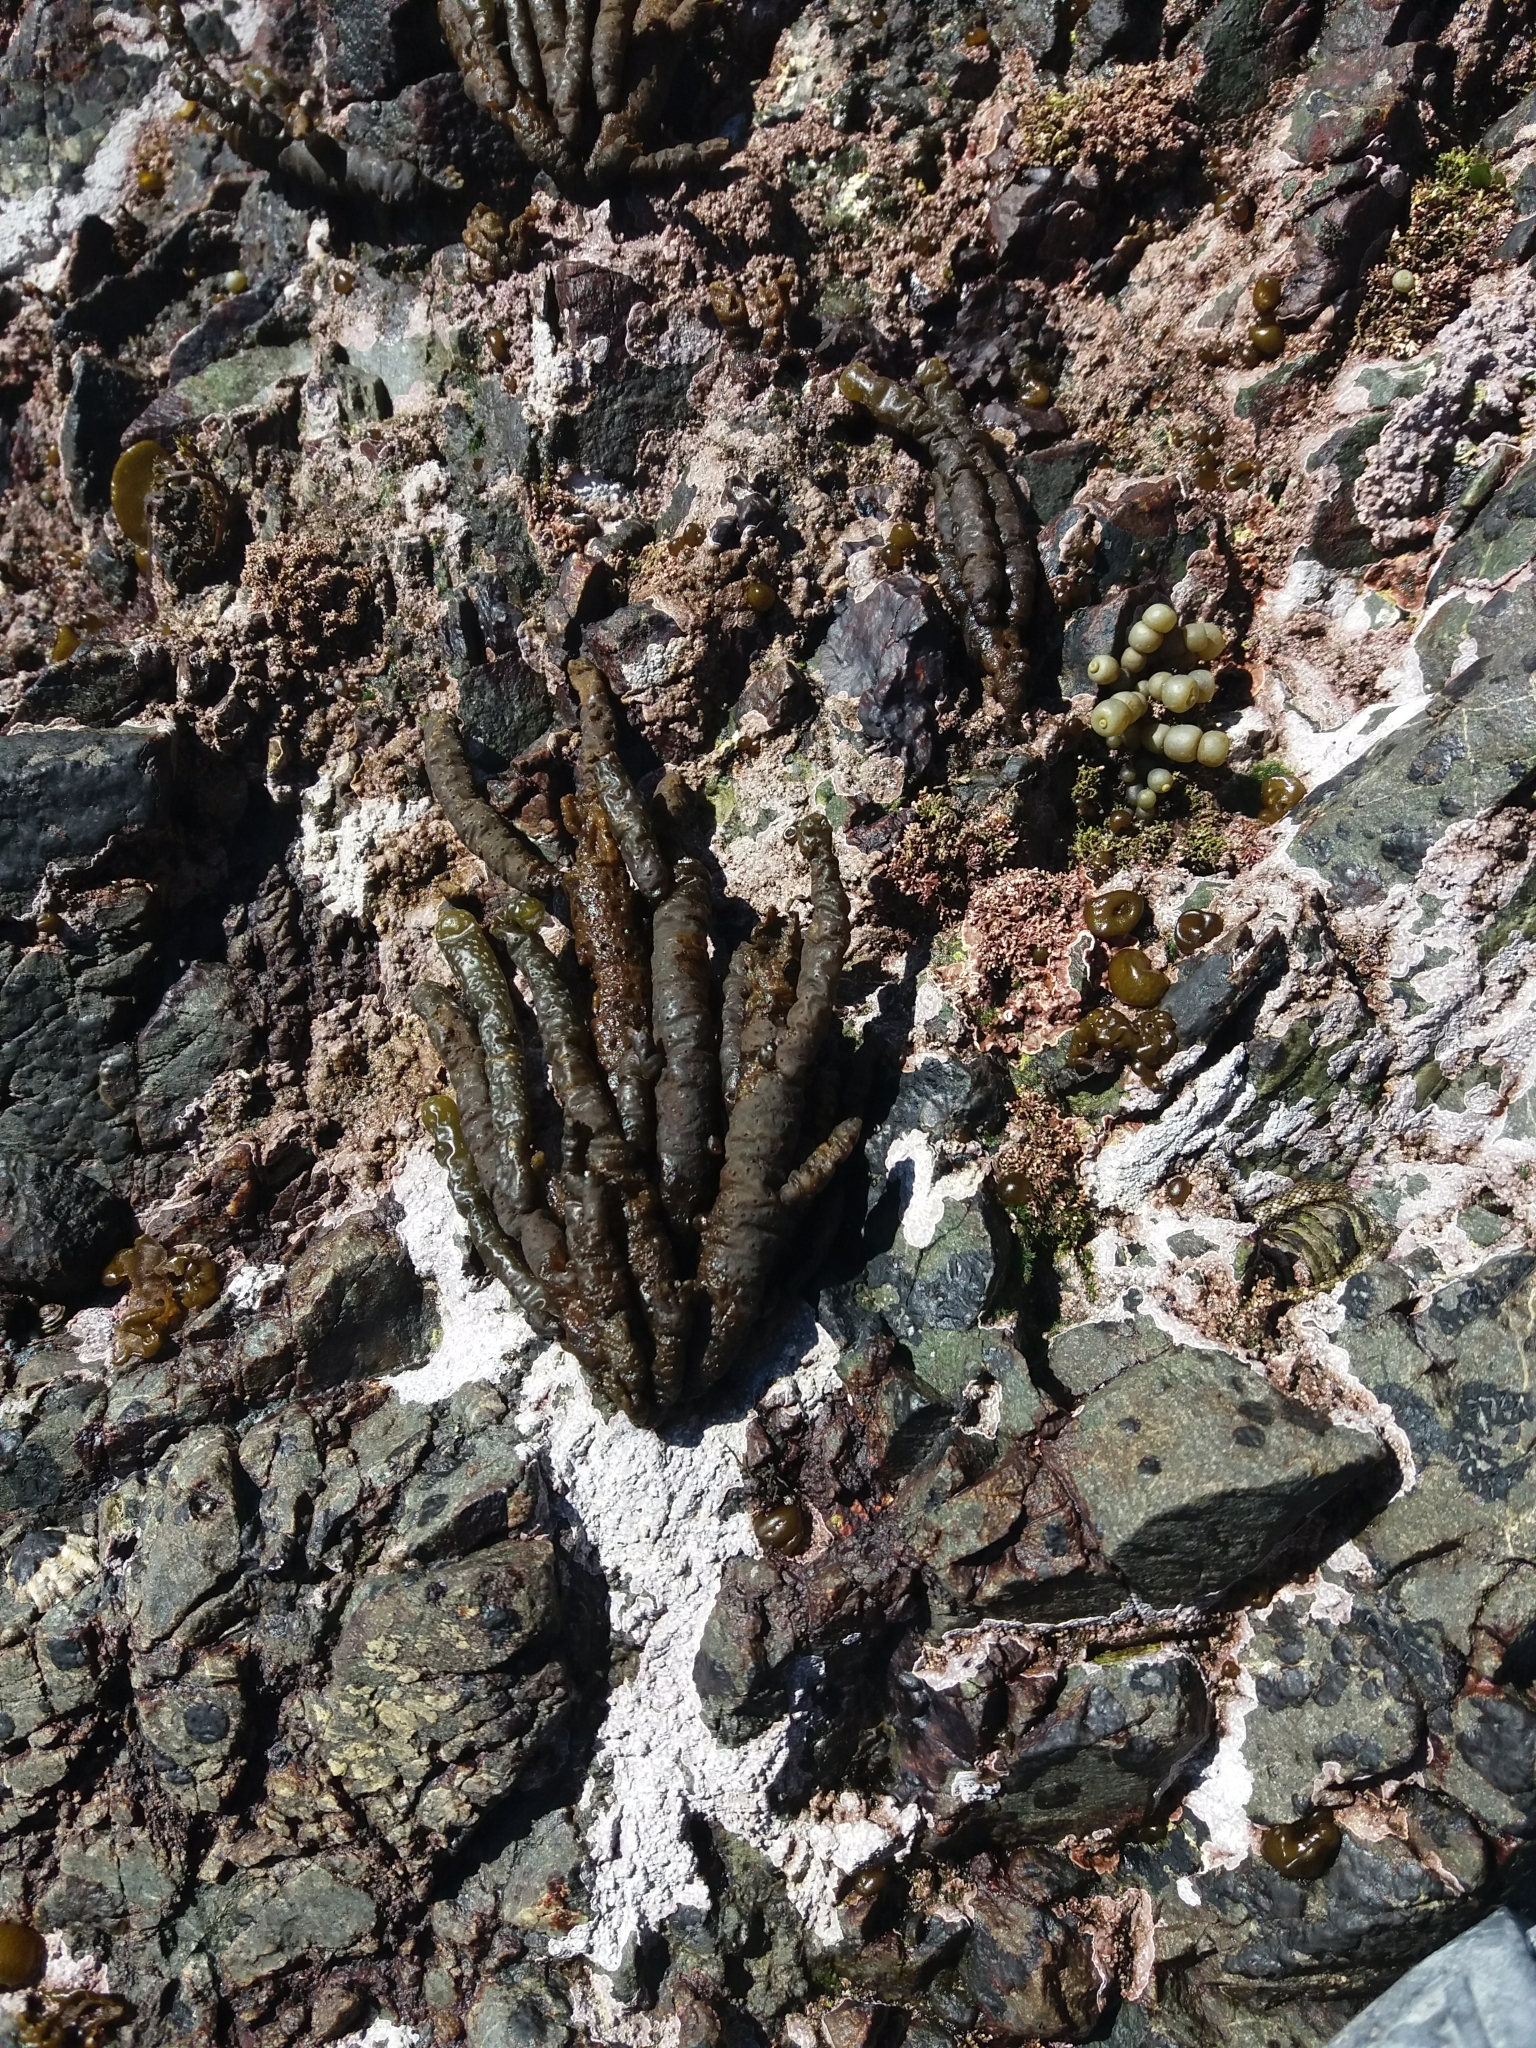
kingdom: Chromista
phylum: Ochrophyta
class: Phaeophyceae
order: Scytothamnales
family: Splachnidiaceae
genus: Splachnidium
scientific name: Splachnidium rugosum
